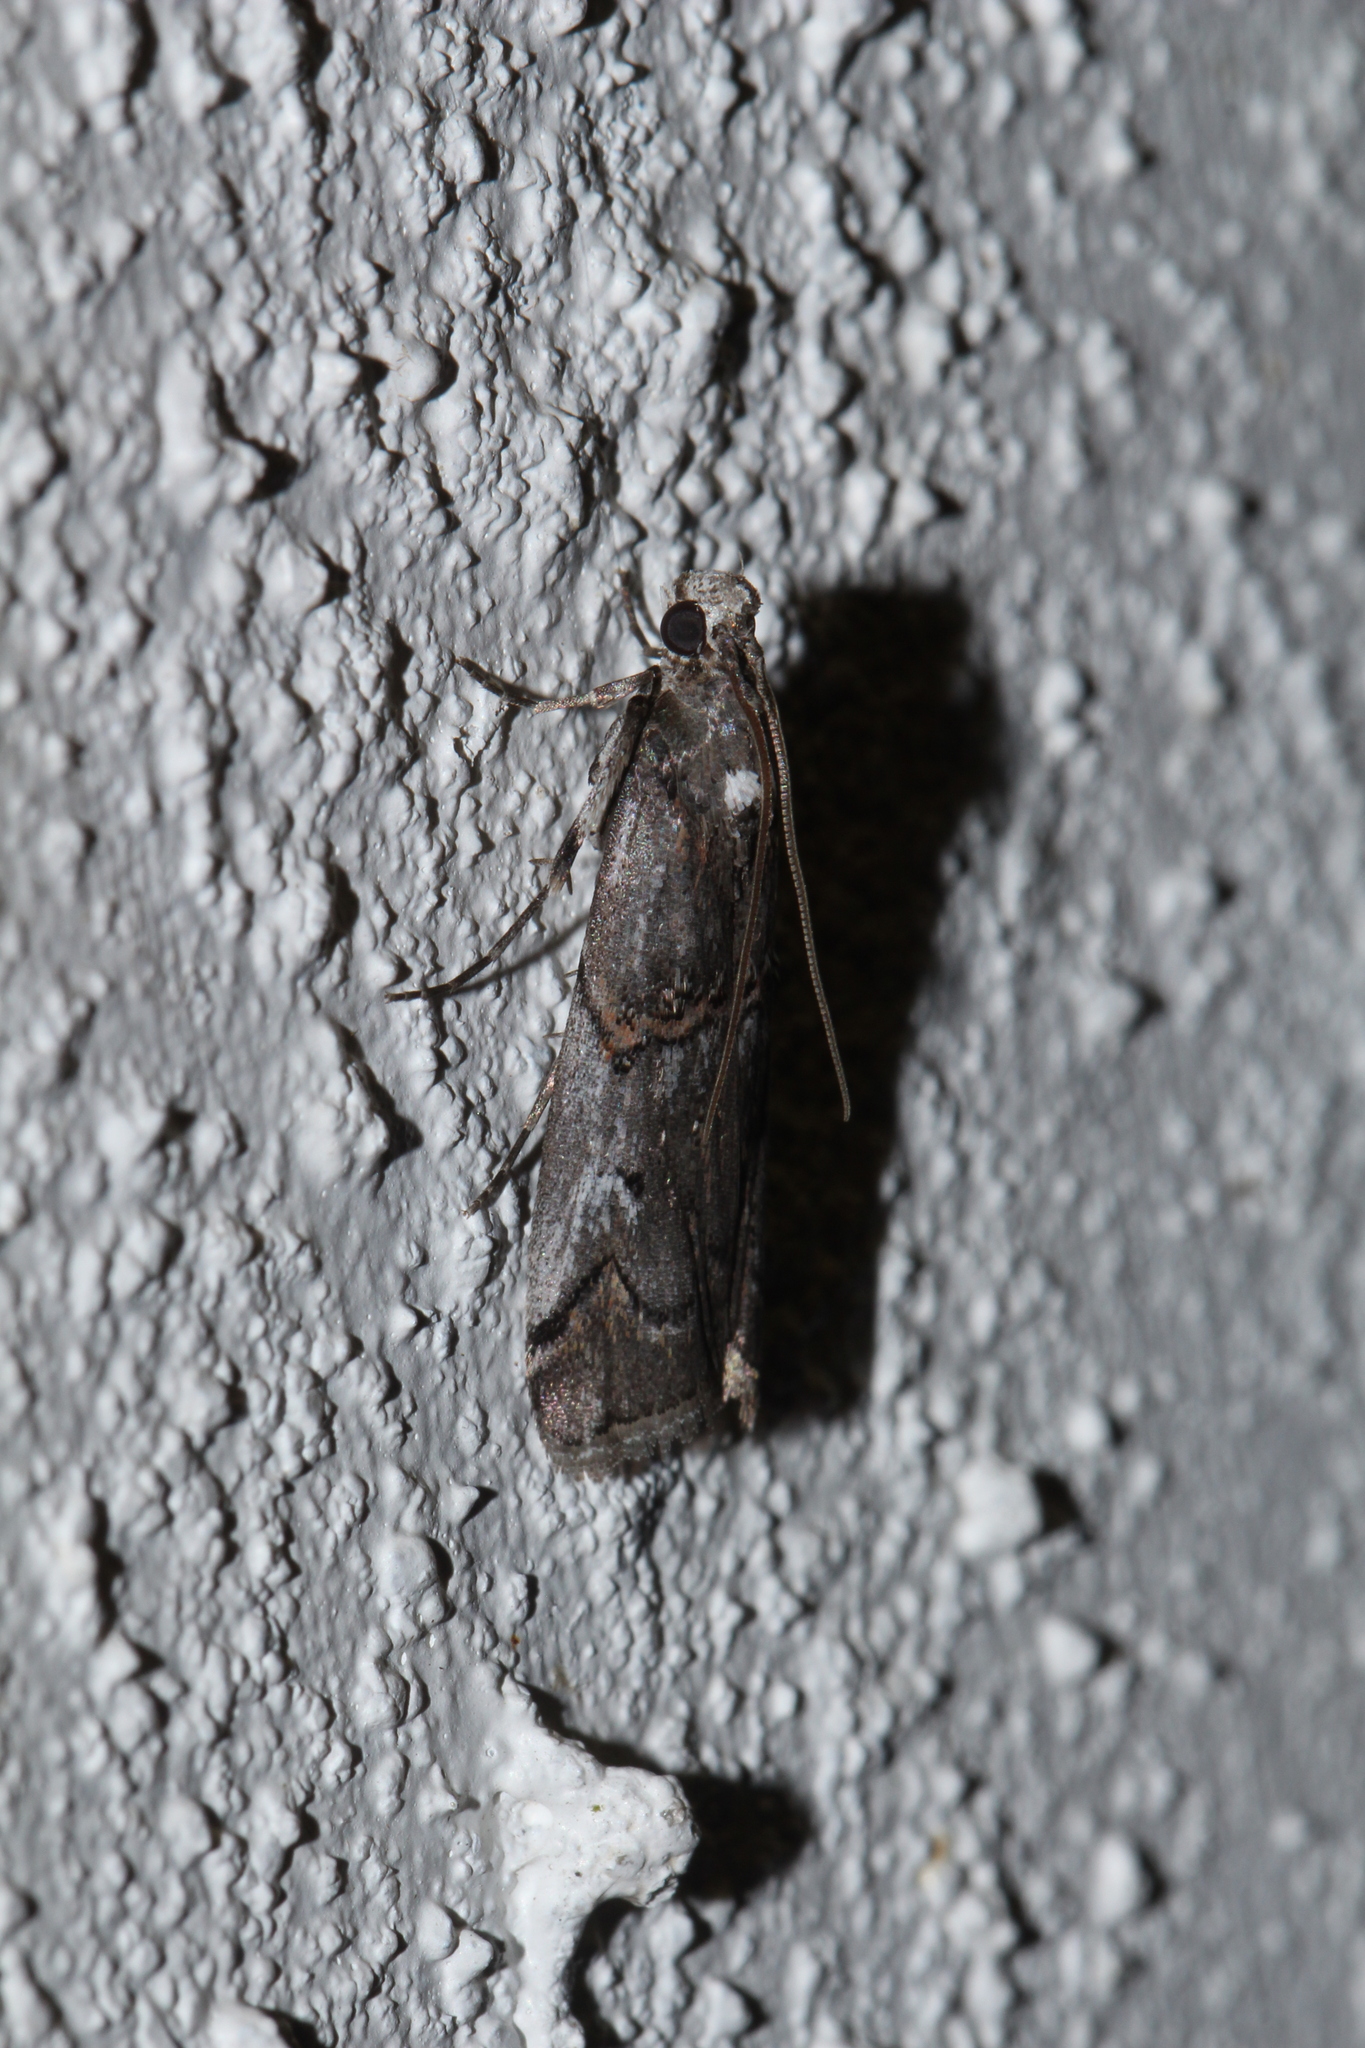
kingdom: Animalia
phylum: Arthropoda
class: Insecta
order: Lepidoptera
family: Pyralidae
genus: Pempelia
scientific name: Pempelia palumbella
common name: Heather knot-horn
